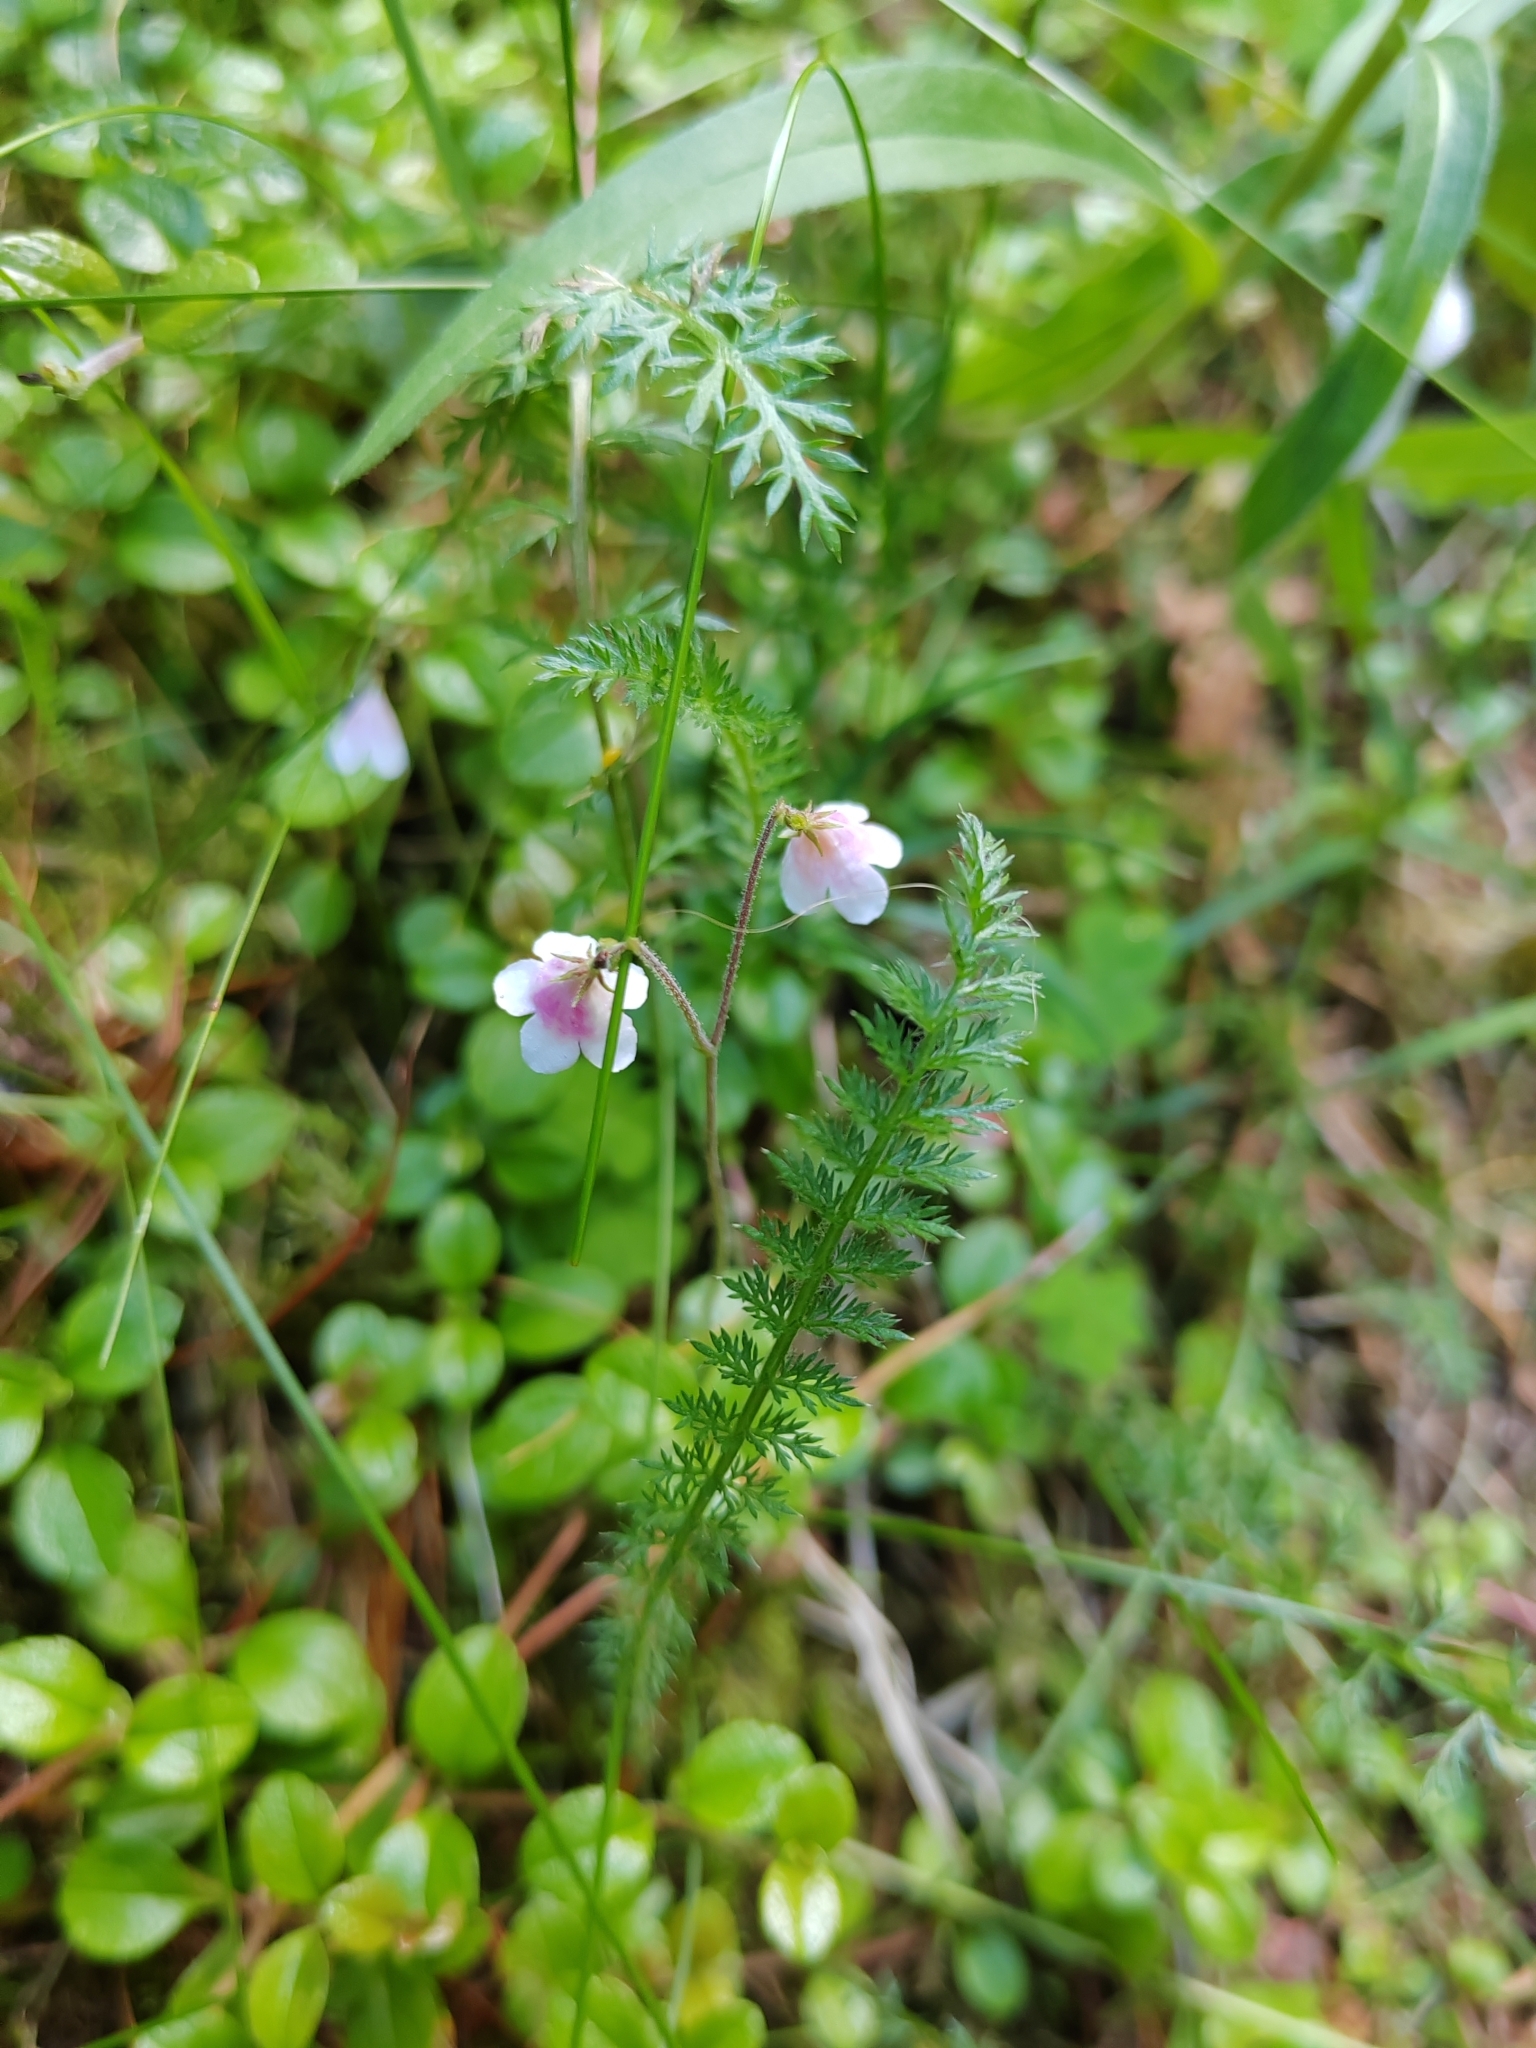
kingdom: Plantae
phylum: Tracheophyta
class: Magnoliopsida
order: Dipsacales
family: Caprifoliaceae
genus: Linnaea
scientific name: Linnaea borealis
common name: Twinflower
